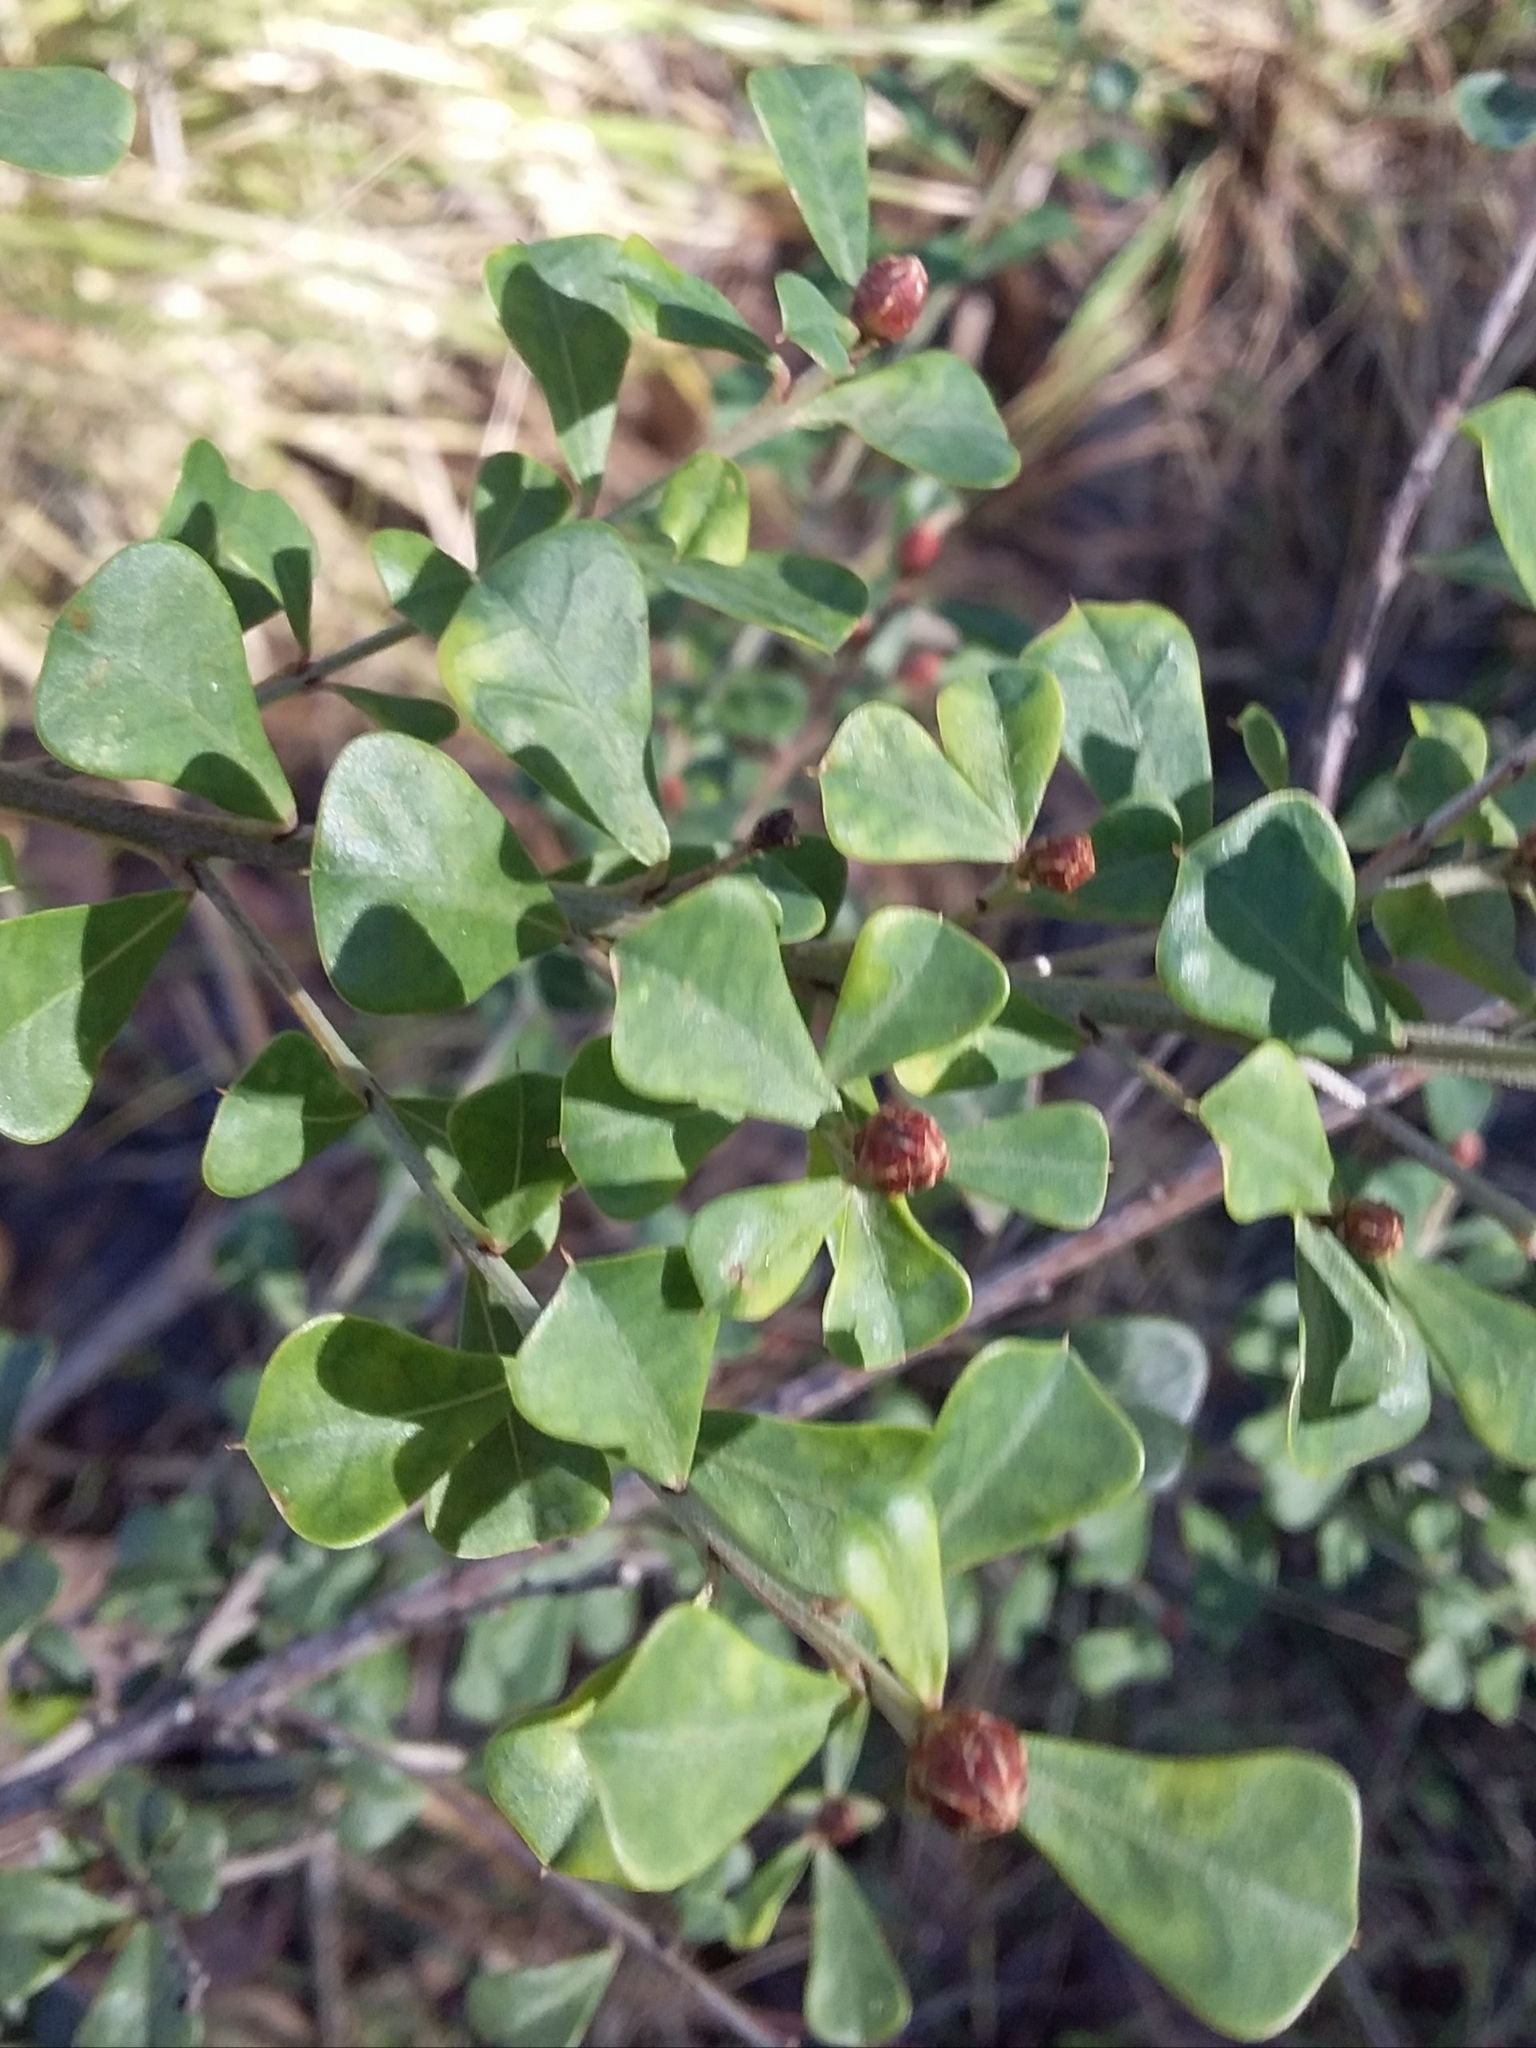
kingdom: Plantae
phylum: Tracheophyta
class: Magnoliopsida
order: Fabales
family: Fabaceae
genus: Pultenaea
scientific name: Pultenaea daphnoides
